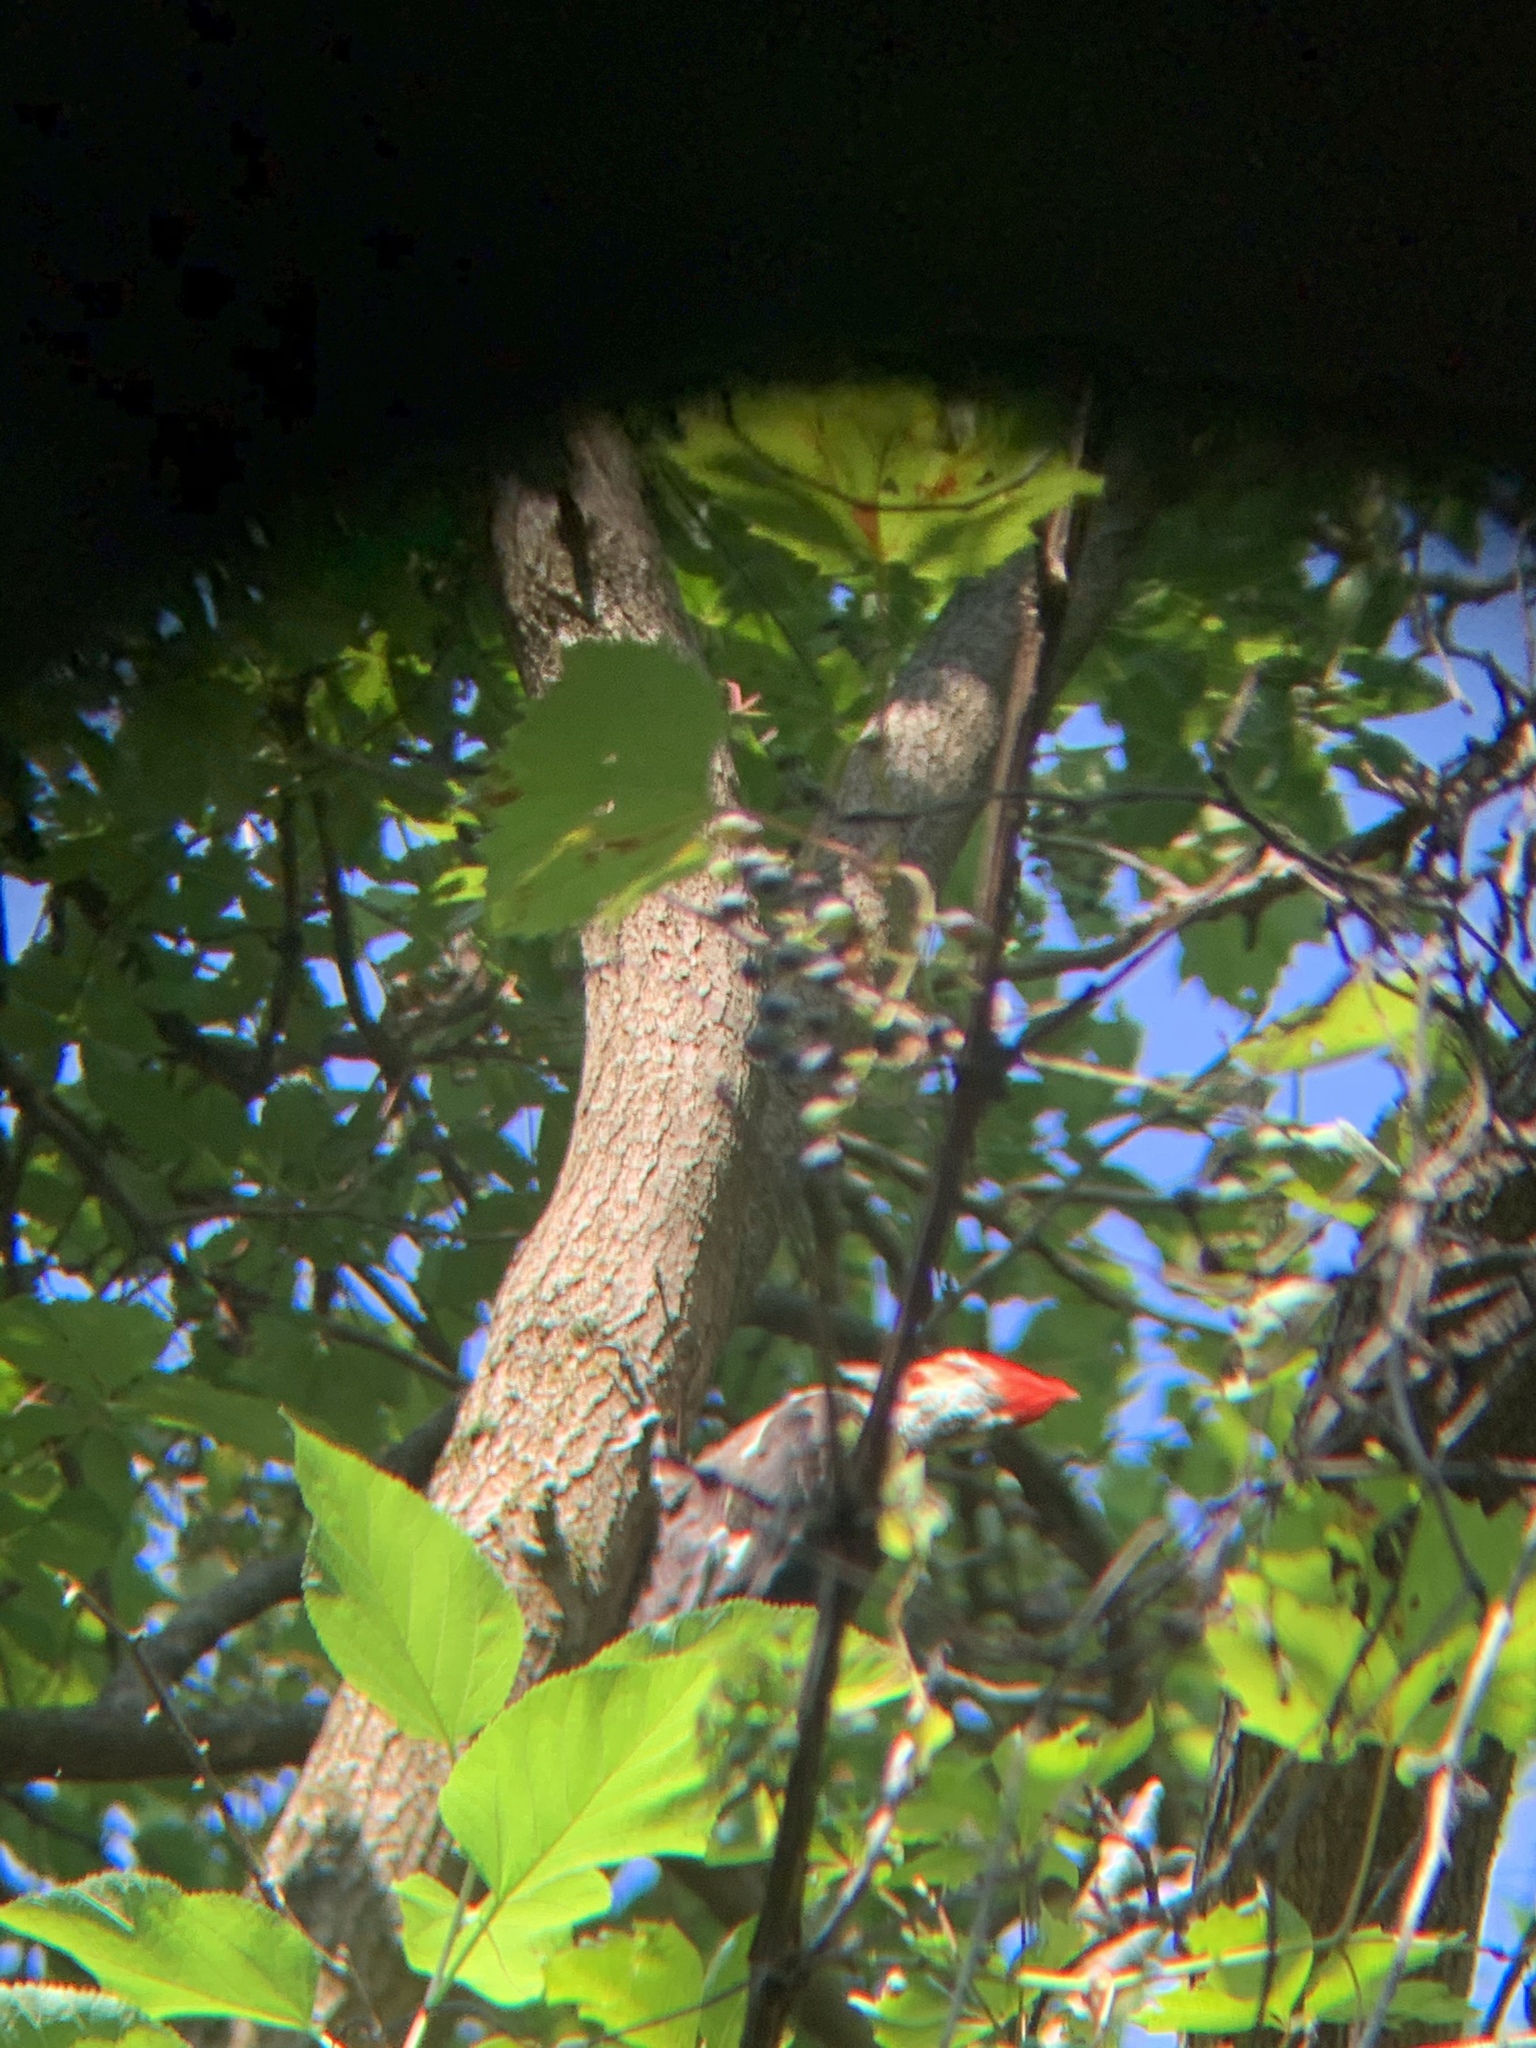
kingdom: Animalia
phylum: Chordata
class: Aves
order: Piciformes
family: Picidae
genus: Dryocopus
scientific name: Dryocopus pileatus
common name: Pileated woodpecker
